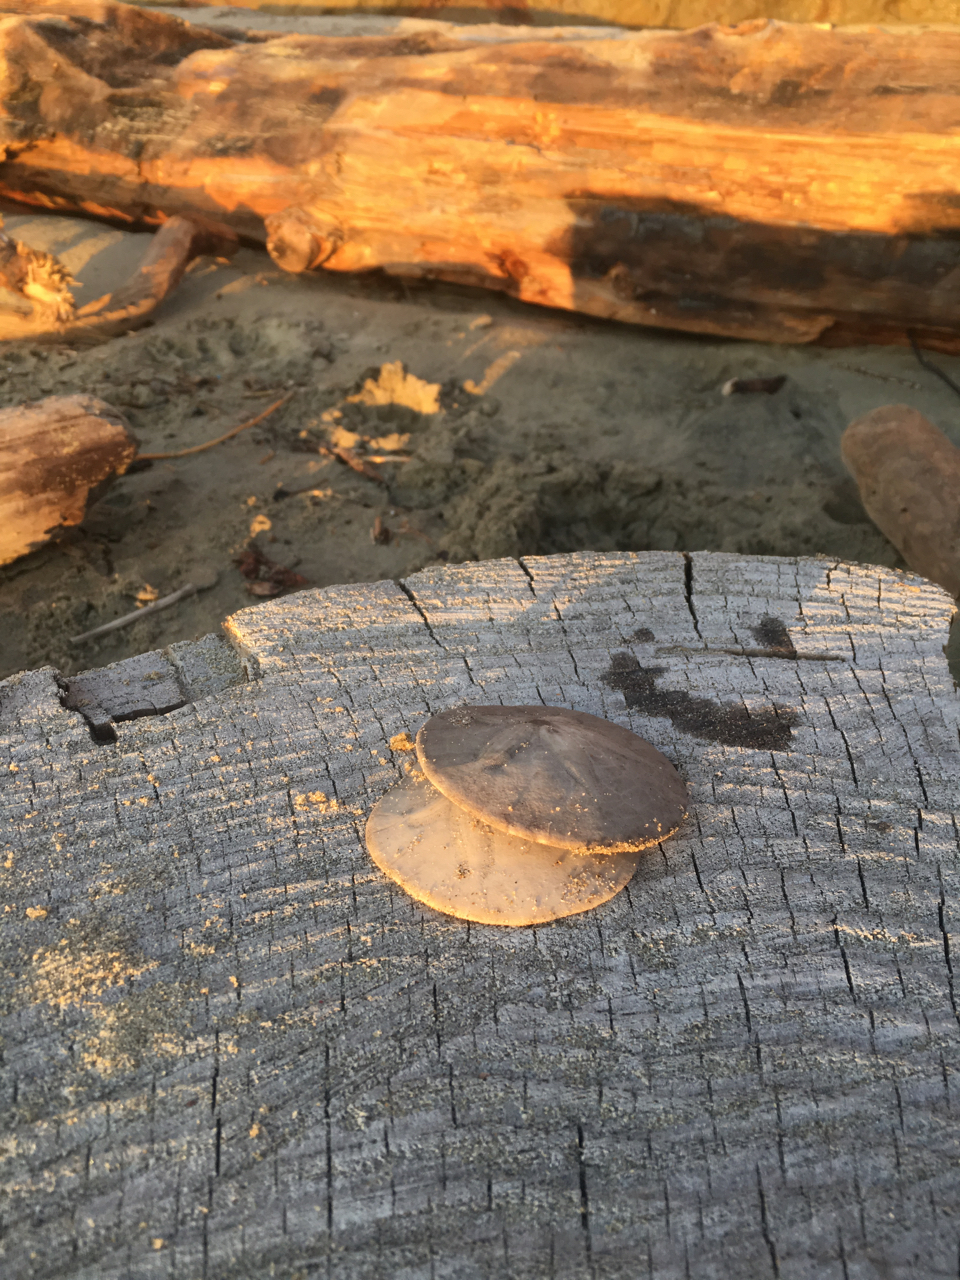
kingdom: Animalia
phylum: Echinodermata
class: Echinoidea
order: Echinolampadacea
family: Dendrasteridae
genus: Dendraster
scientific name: Dendraster excentricus
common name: Eccentric sand dollar sea urchin
